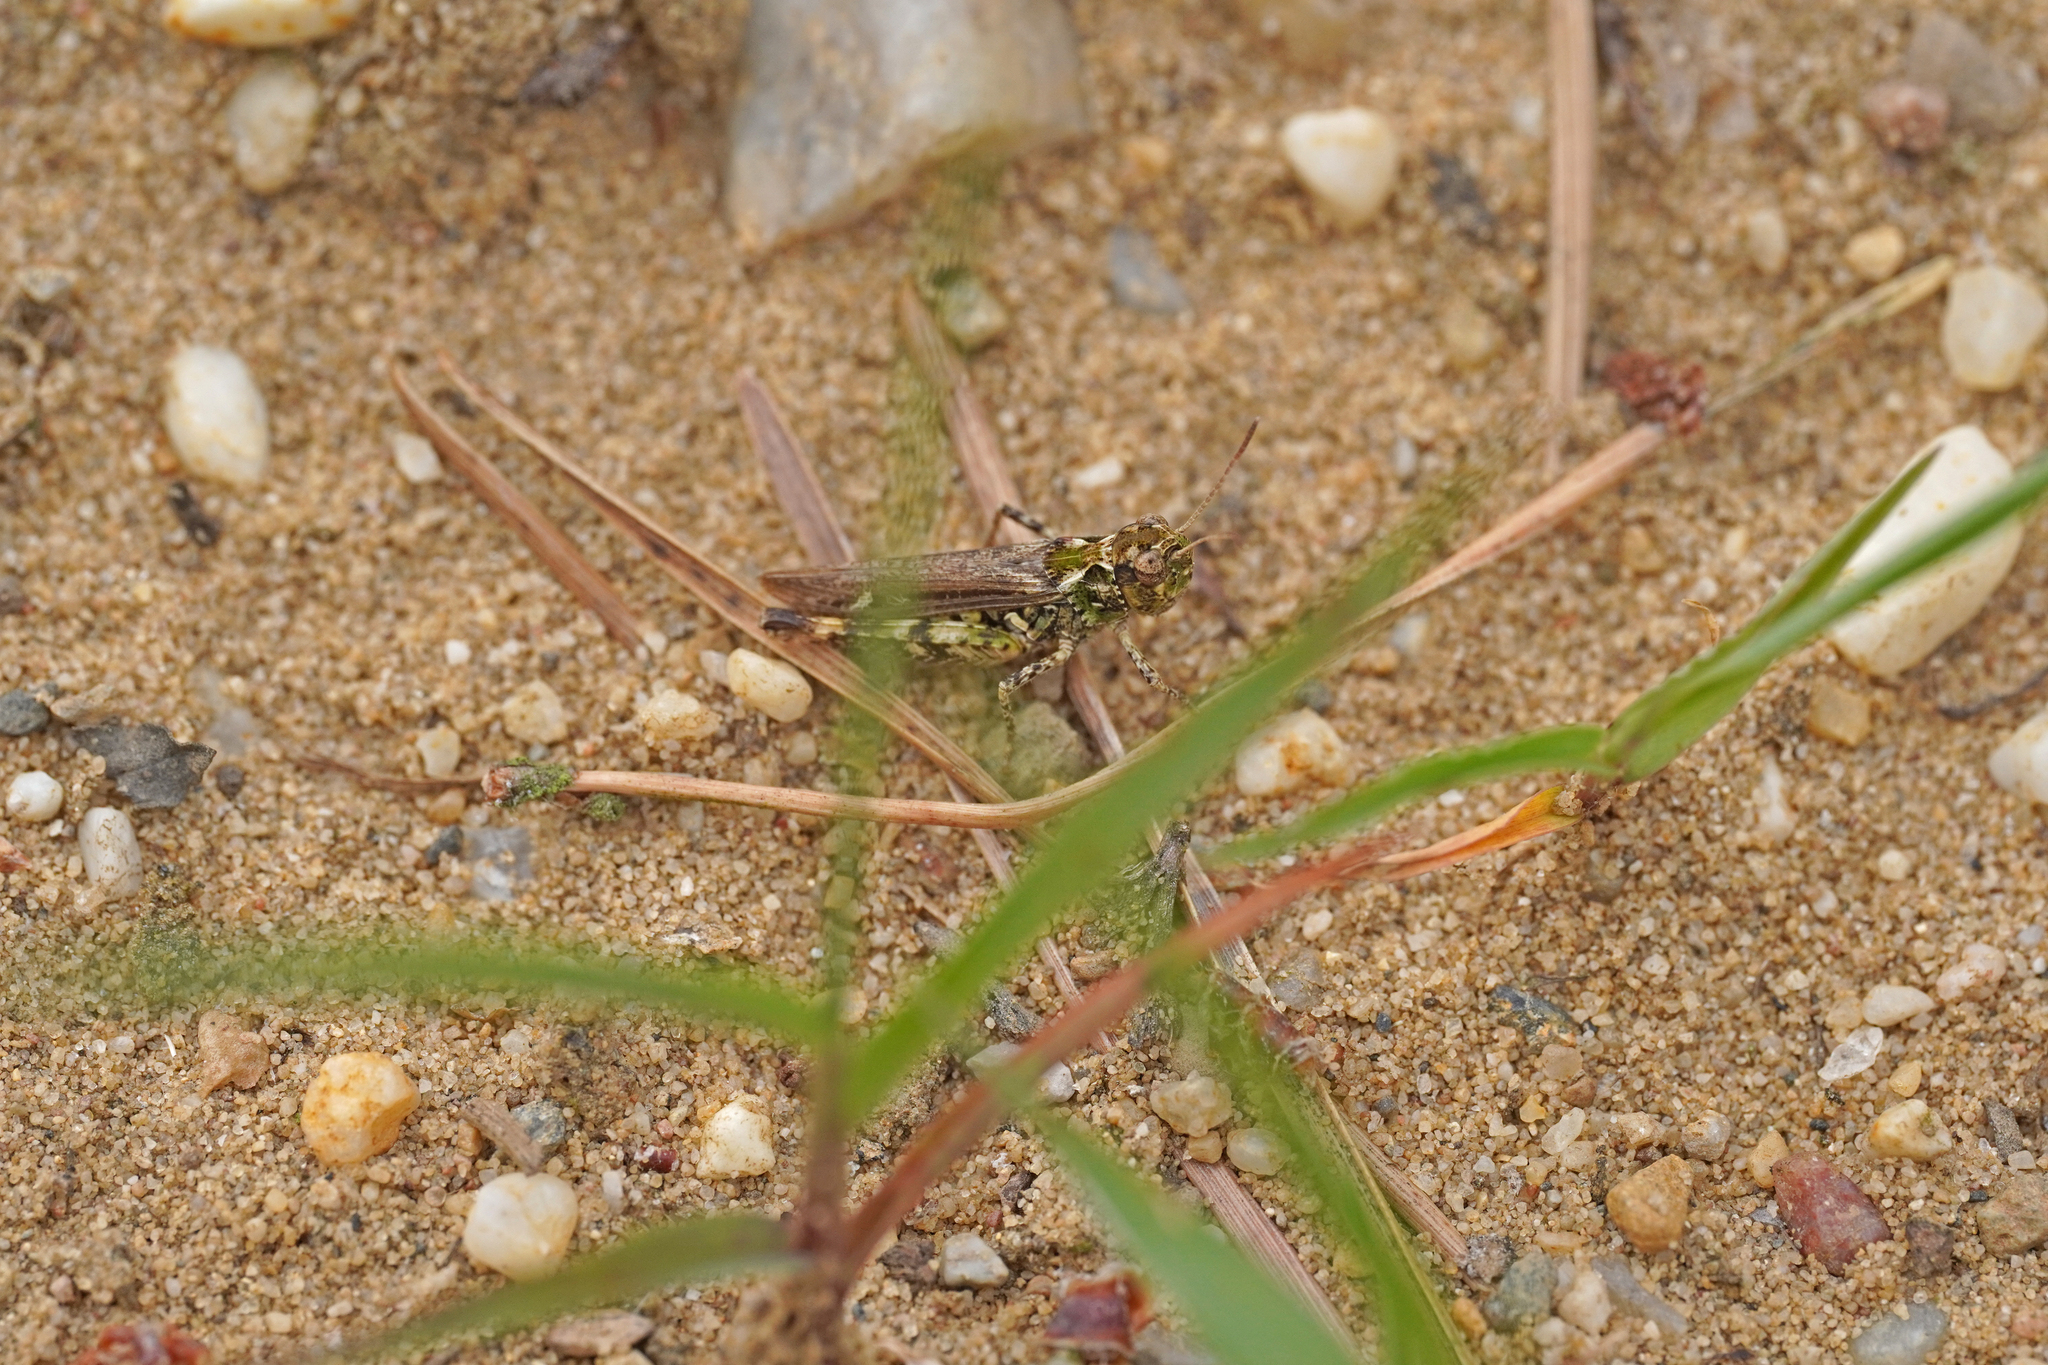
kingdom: Animalia
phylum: Arthropoda
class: Insecta
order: Orthoptera
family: Acrididae
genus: Myrmeleotettix
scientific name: Myrmeleotettix maculatus
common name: Mottled grasshopper
